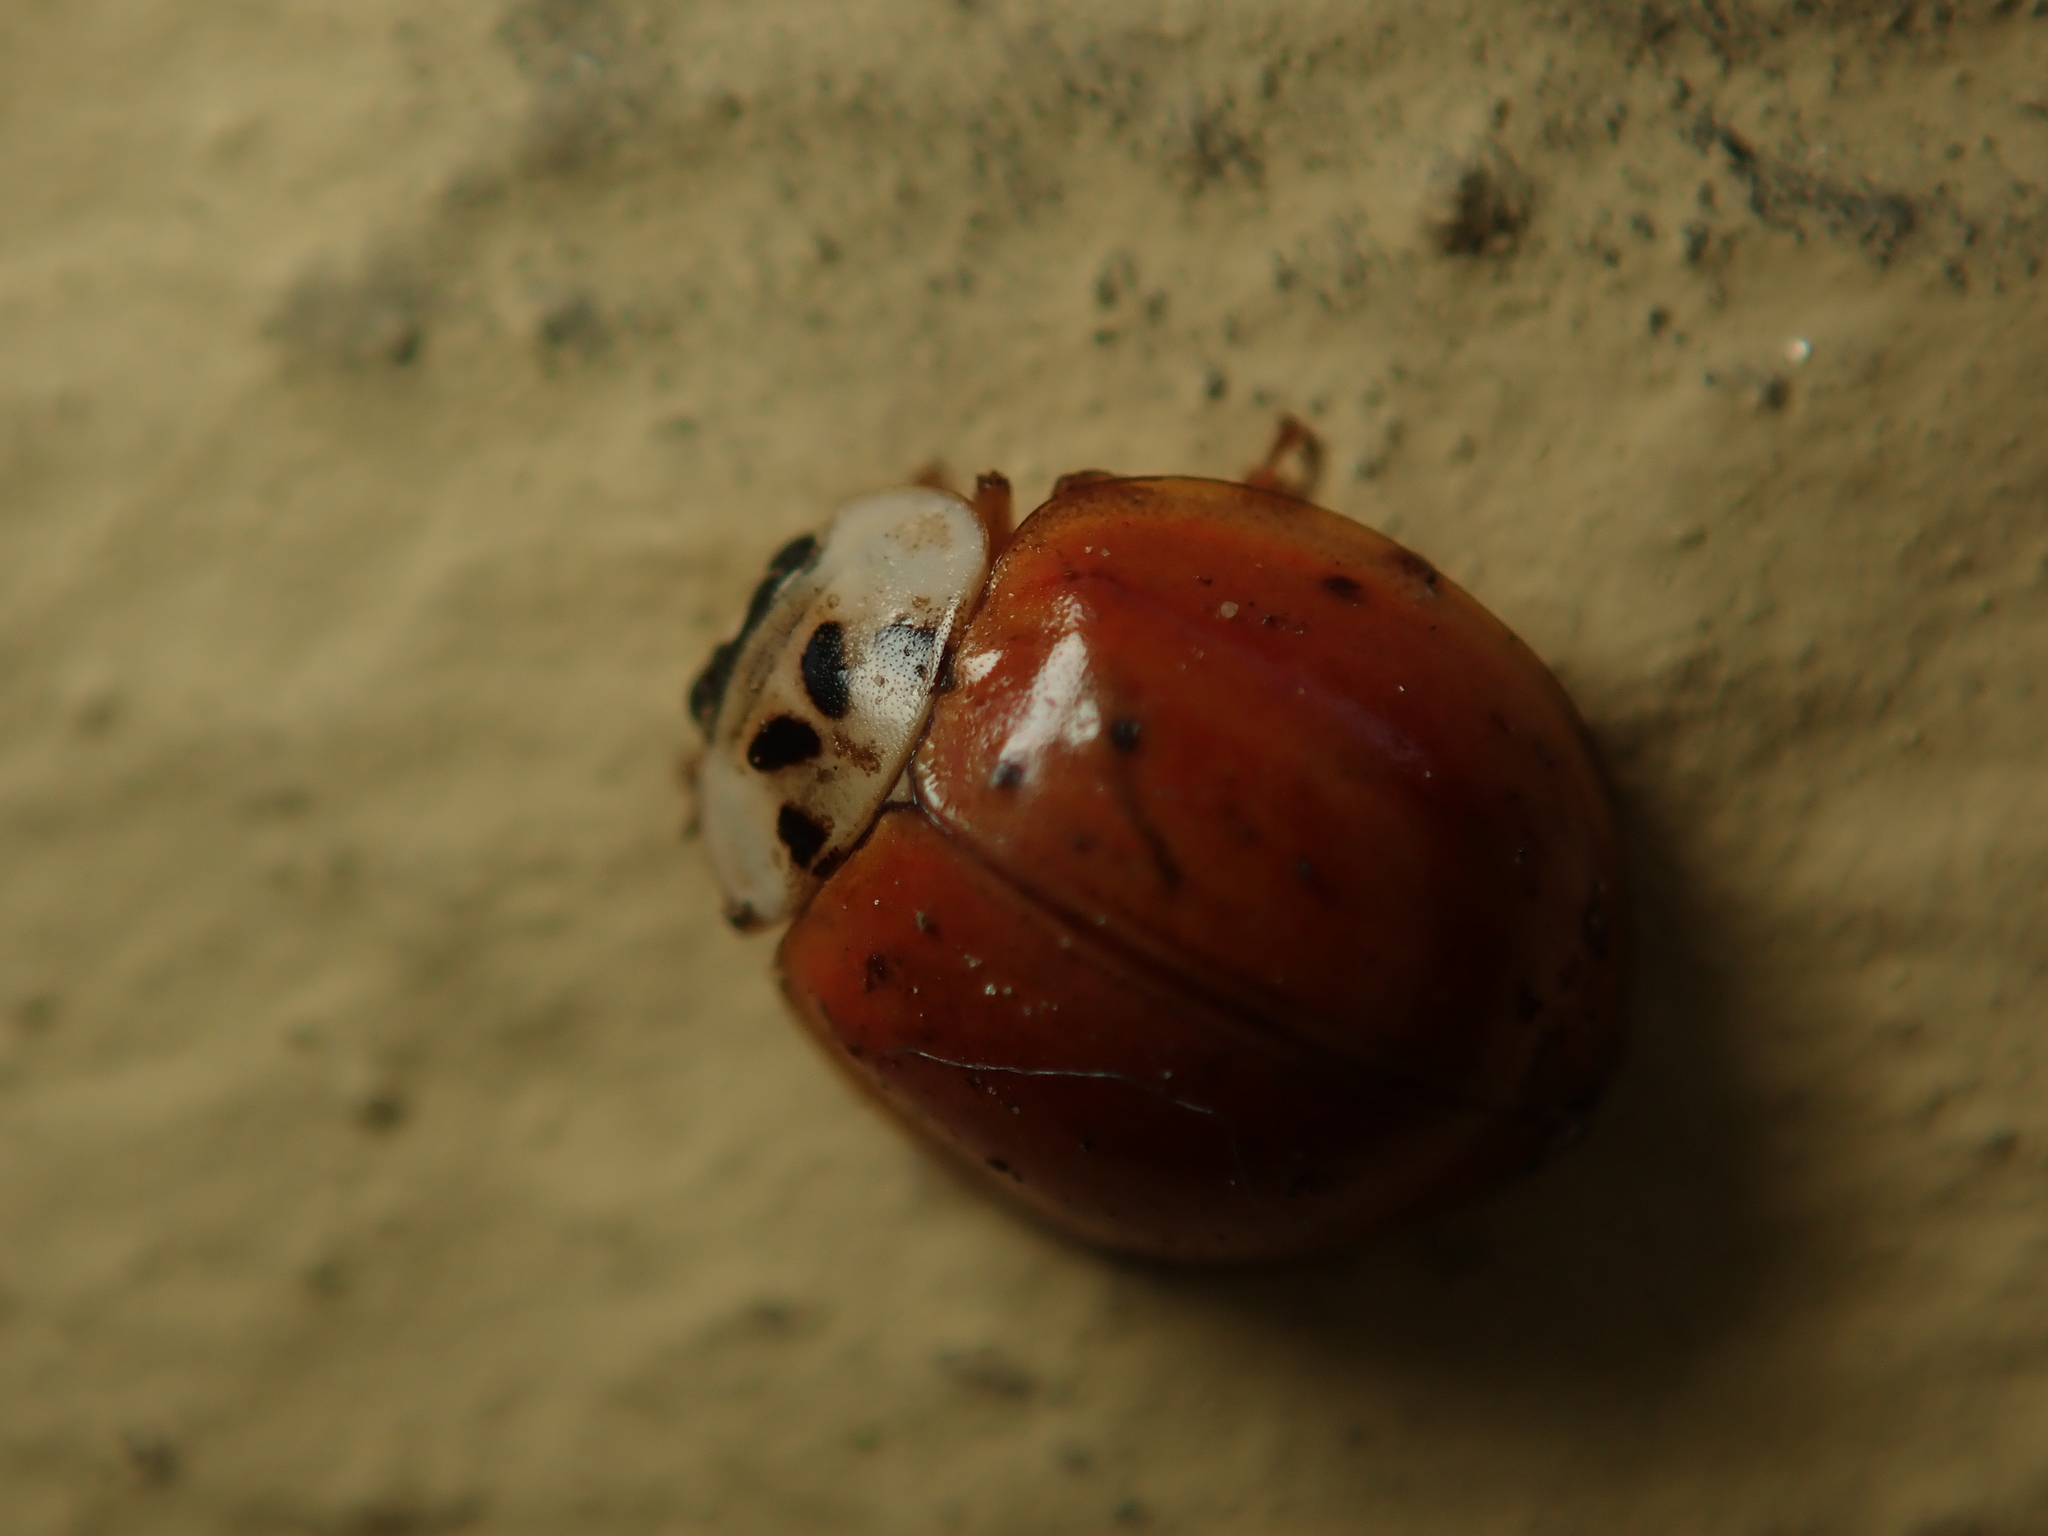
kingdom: Animalia
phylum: Arthropoda
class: Insecta
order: Coleoptera
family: Coccinellidae
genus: Harmonia
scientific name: Harmonia axyridis
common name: Harlequin ladybird
